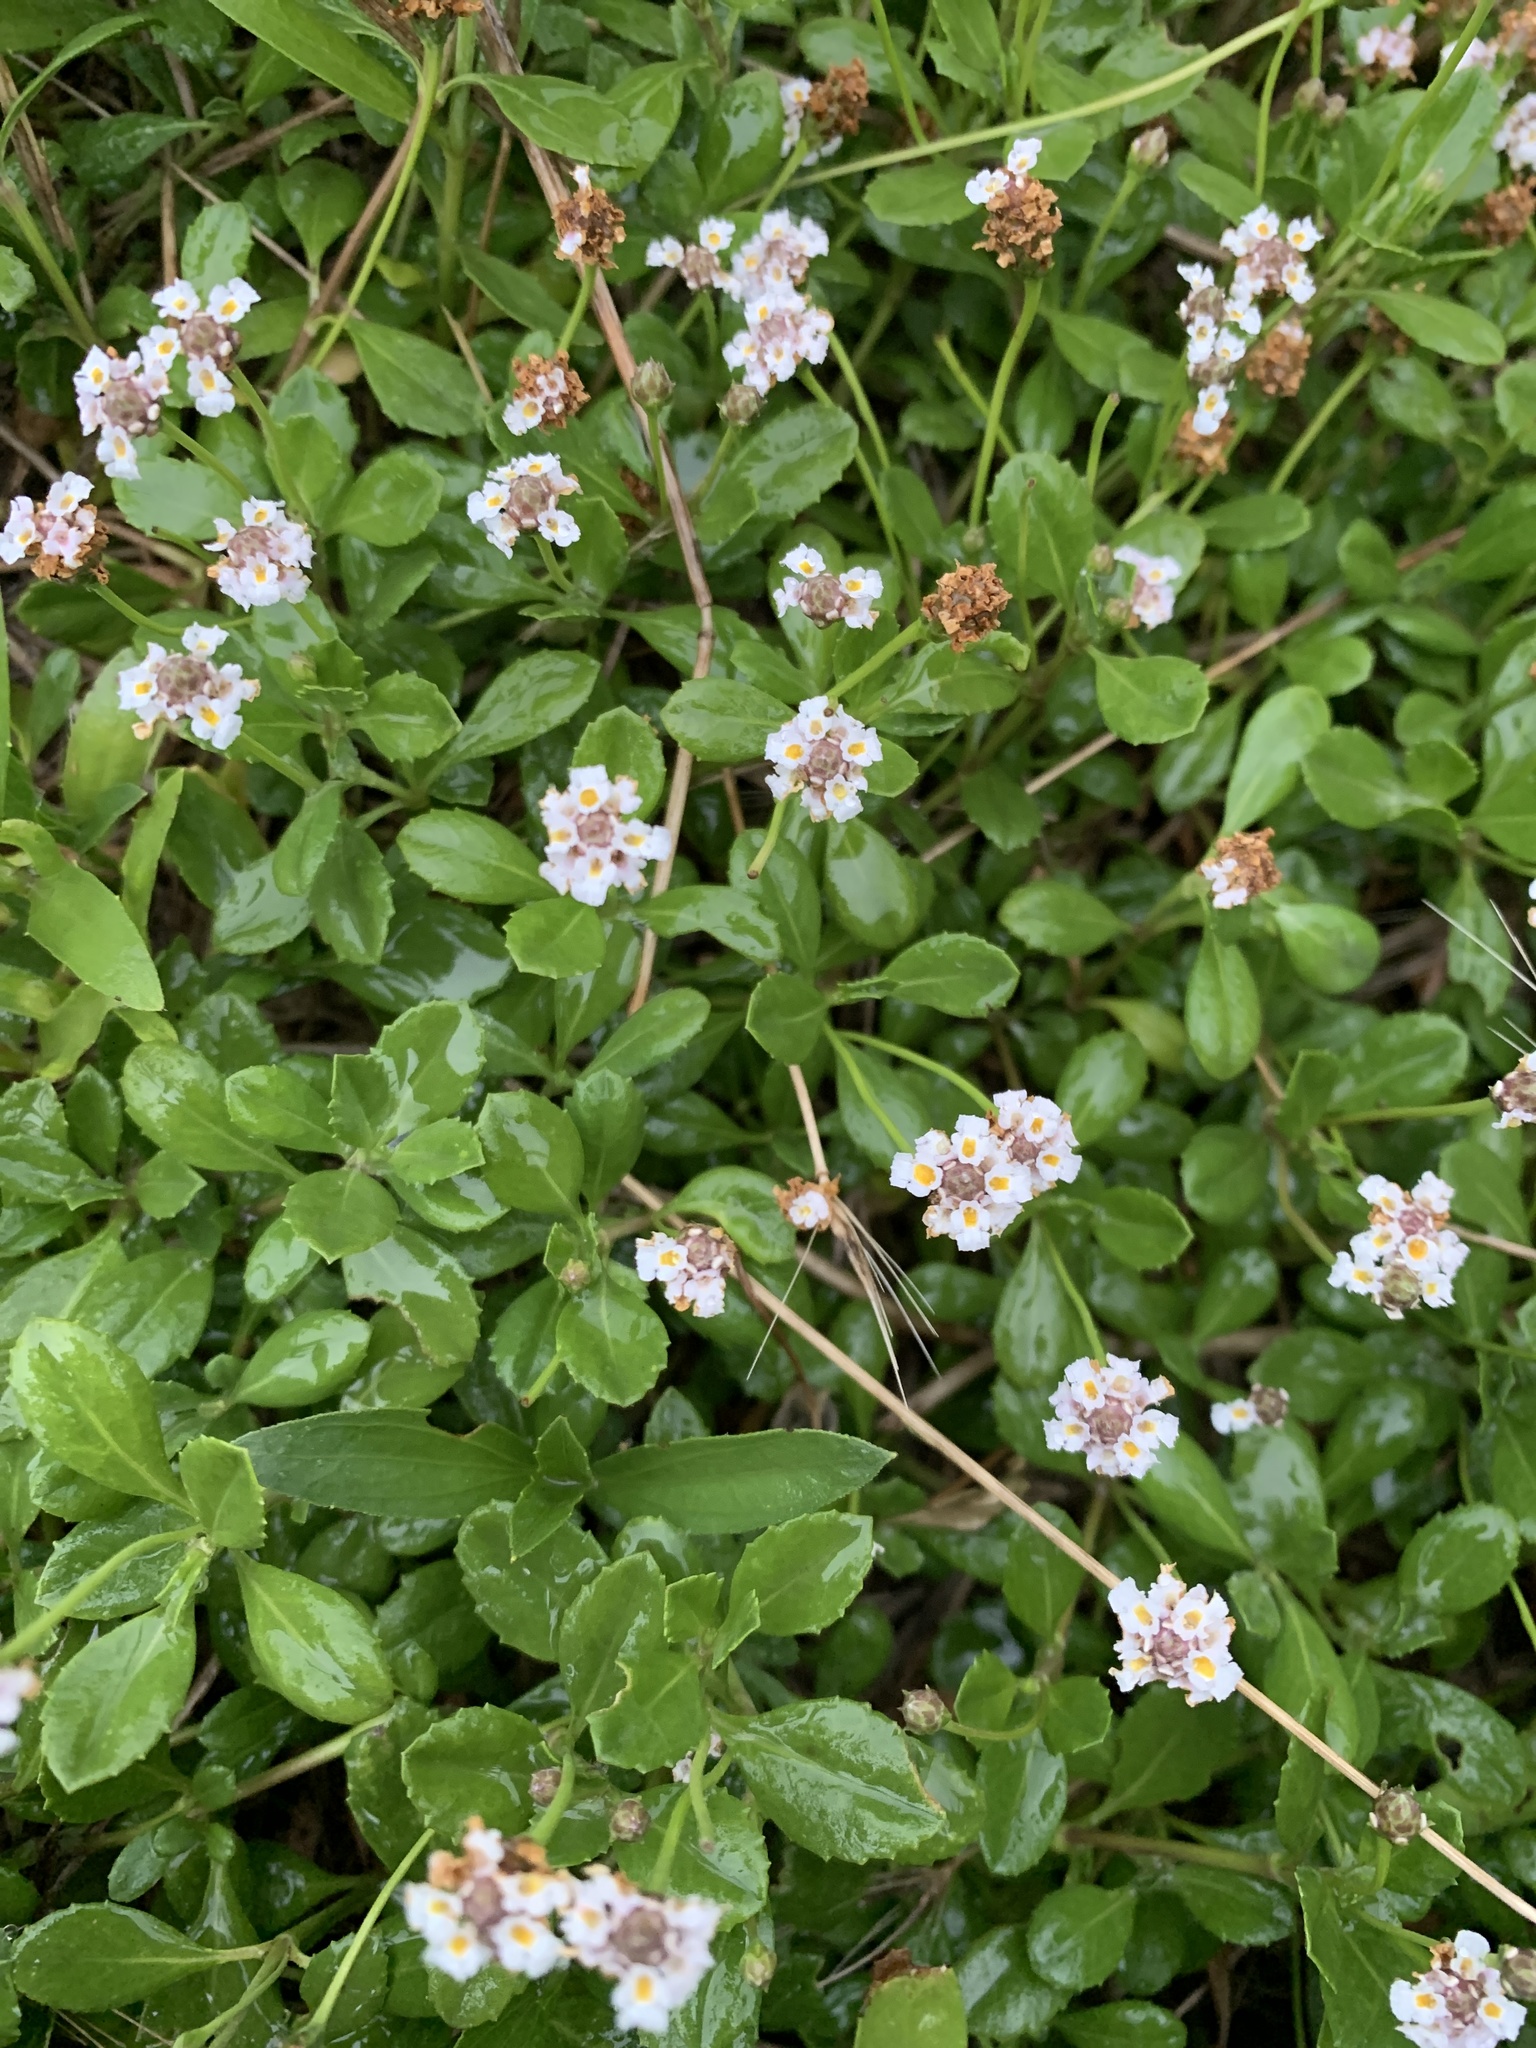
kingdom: Plantae
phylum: Tracheophyta
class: Magnoliopsida
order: Lamiales
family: Verbenaceae
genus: Phyla
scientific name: Phyla nodiflora
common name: Frogfruit
